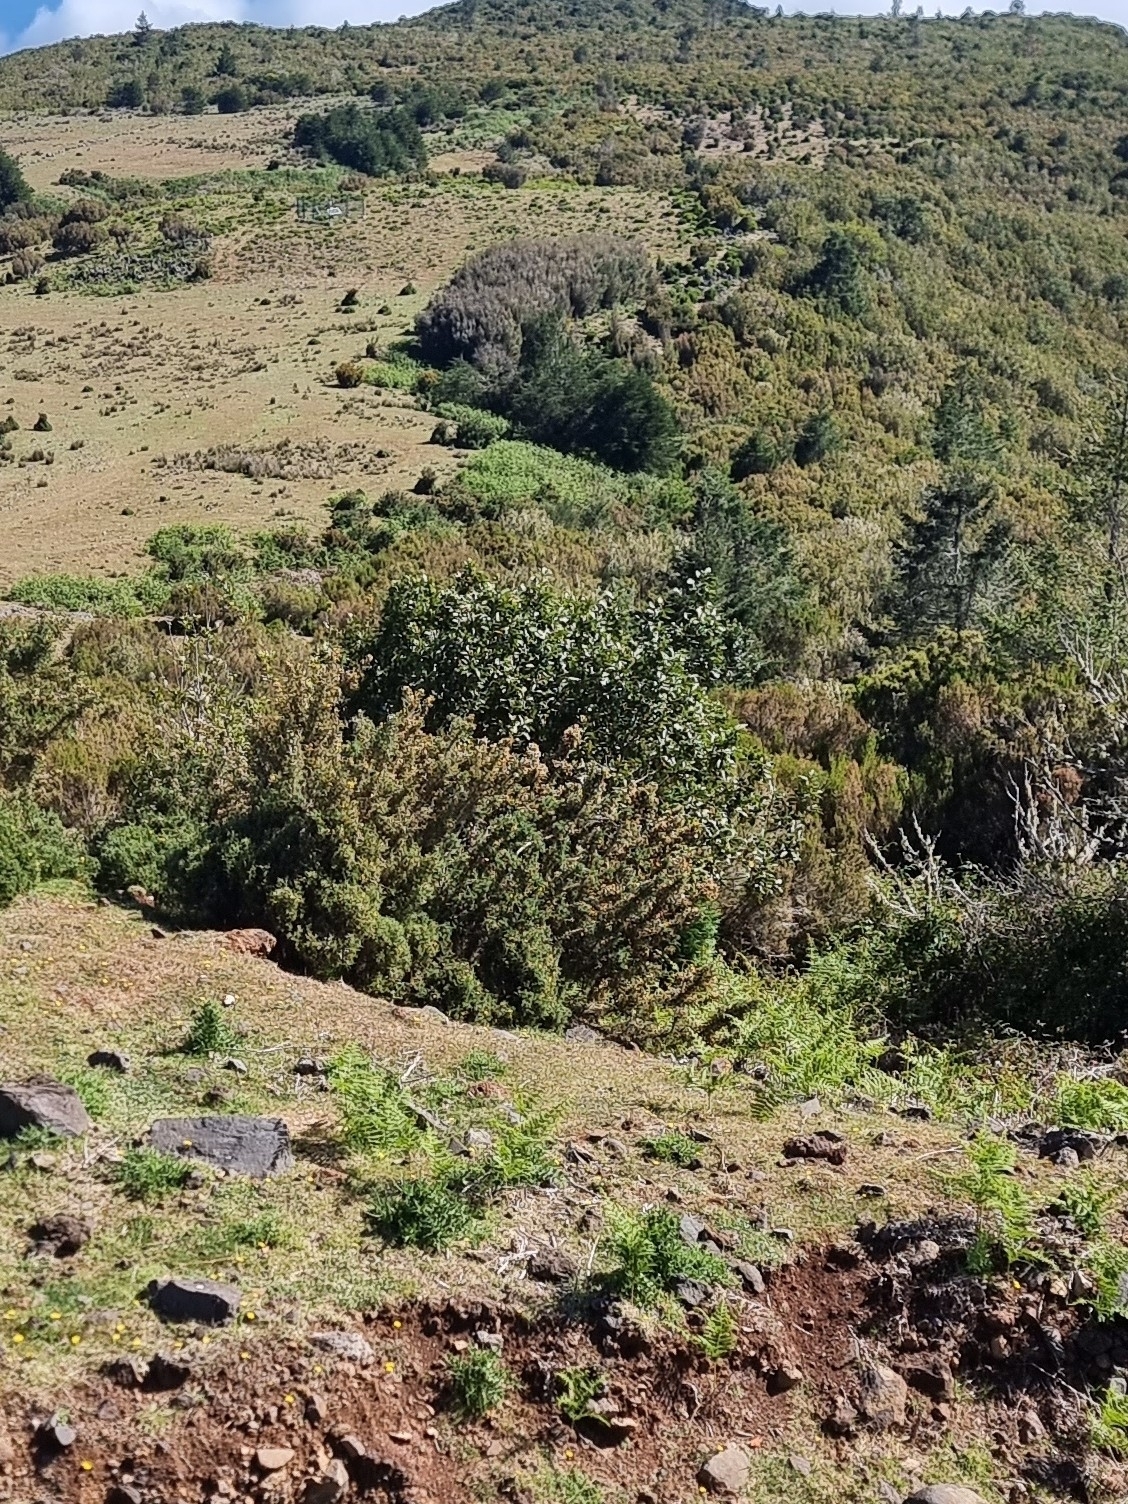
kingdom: Plantae
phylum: Tracheophyta
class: Magnoliopsida
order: Fabales
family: Fabaceae
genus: Ulex
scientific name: Ulex europaeus
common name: Common gorse
